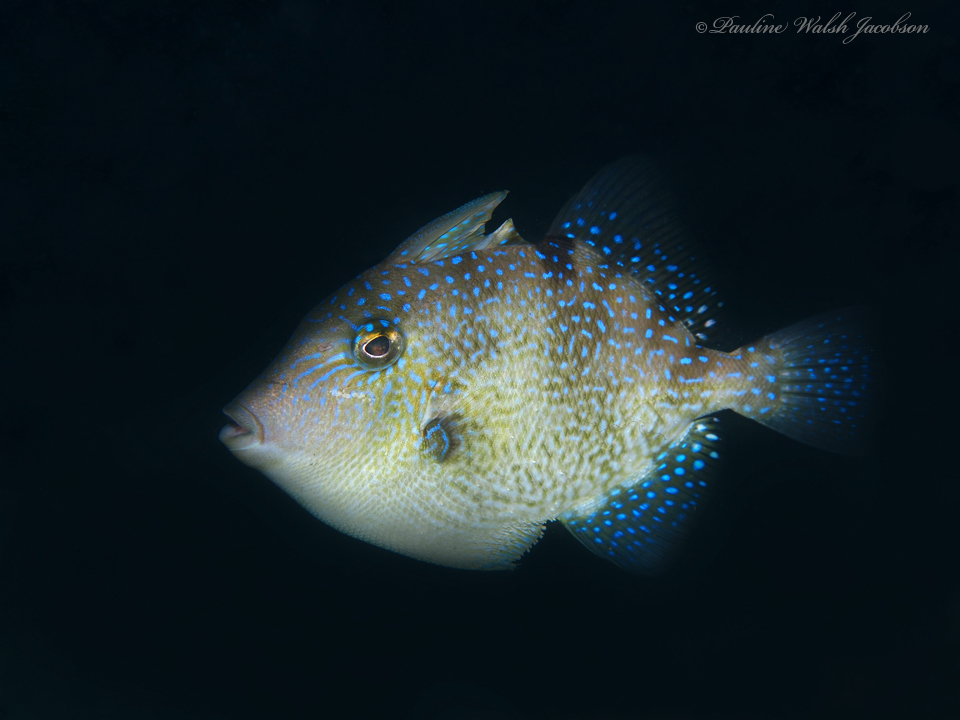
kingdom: Animalia
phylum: Chordata
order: Tetraodontiformes
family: Balistidae
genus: Balistes
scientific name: Balistes capriscus
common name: Grey triggerfish
